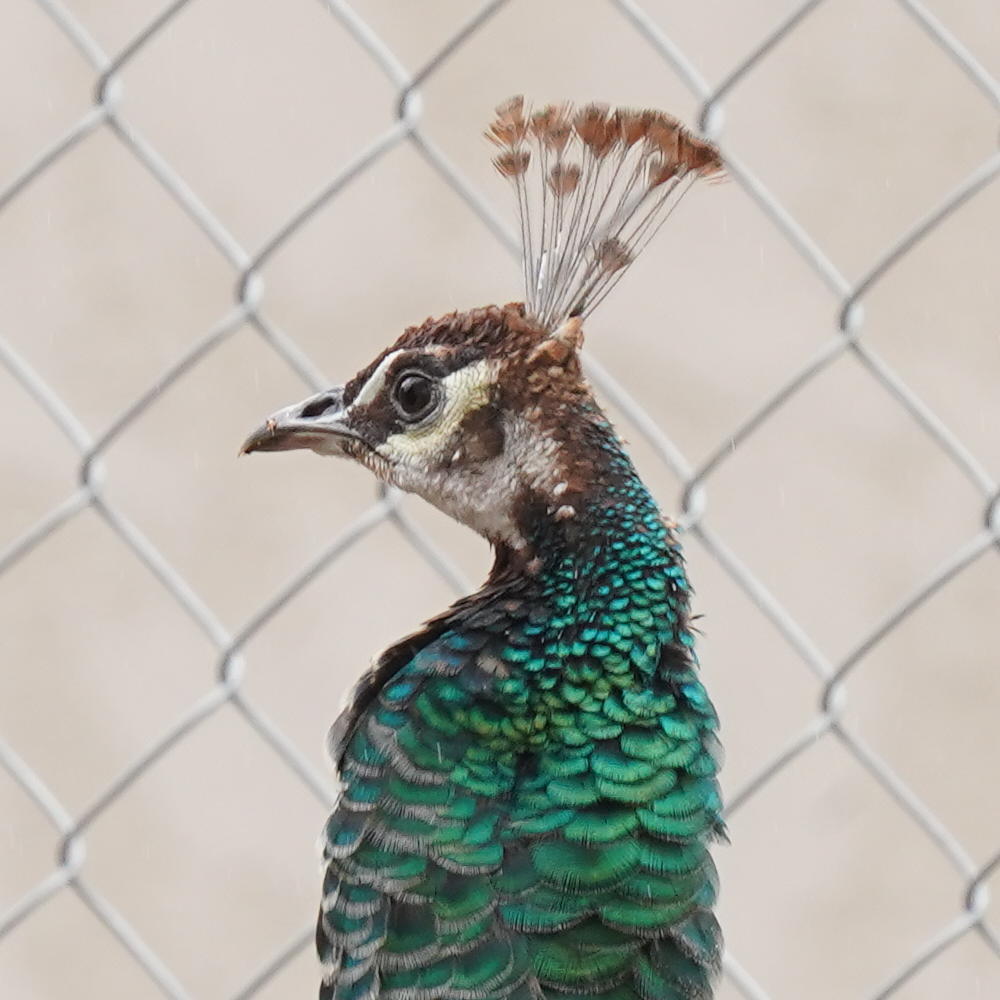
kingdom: Animalia
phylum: Chordata
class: Aves
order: Galliformes
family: Phasianidae
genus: Pavo
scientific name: Pavo cristatus
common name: Indian peafowl
